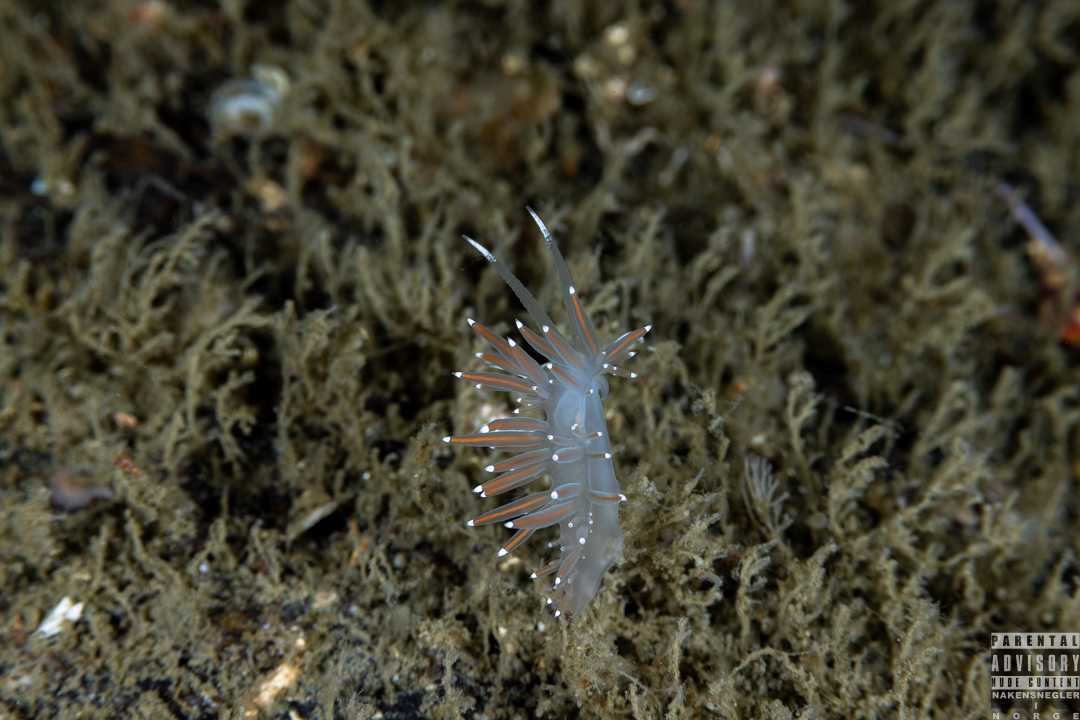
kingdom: Animalia
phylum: Mollusca
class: Gastropoda
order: Nudibranchia
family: Coryphellidae
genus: Coryphella
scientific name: Coryphella browni
